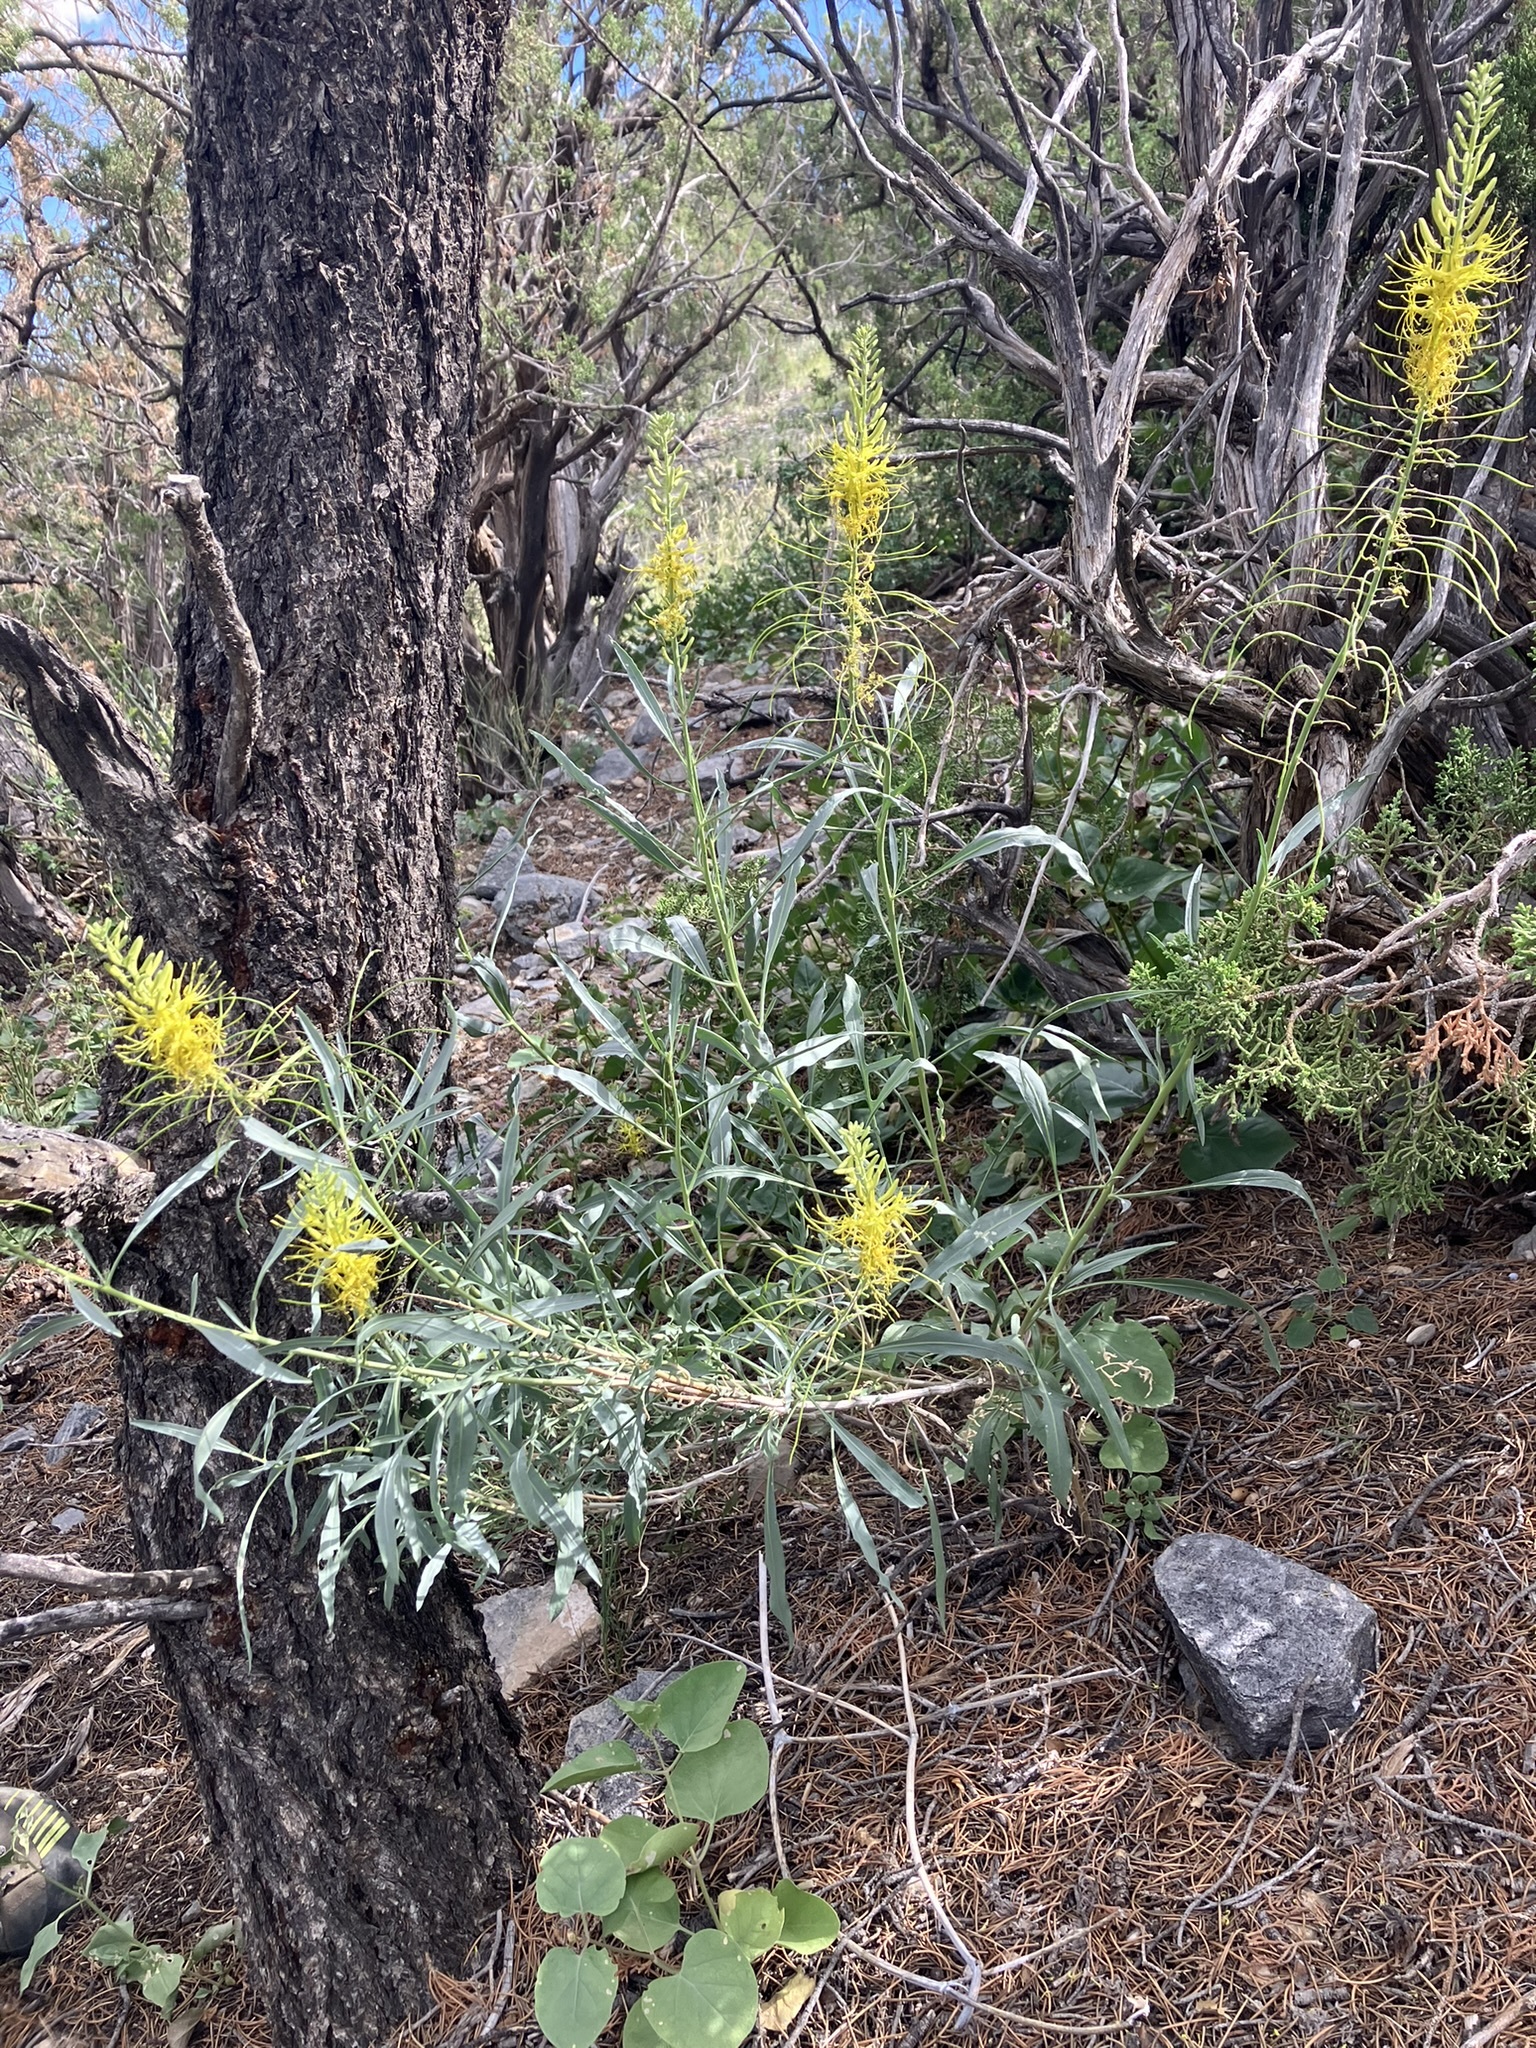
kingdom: Plantae
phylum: Tracheophyta
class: Magnoliopsida
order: Brassicales
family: Brassicaceae
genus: Stanleya
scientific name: Stanleya pinnata
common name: Prince's-plume
